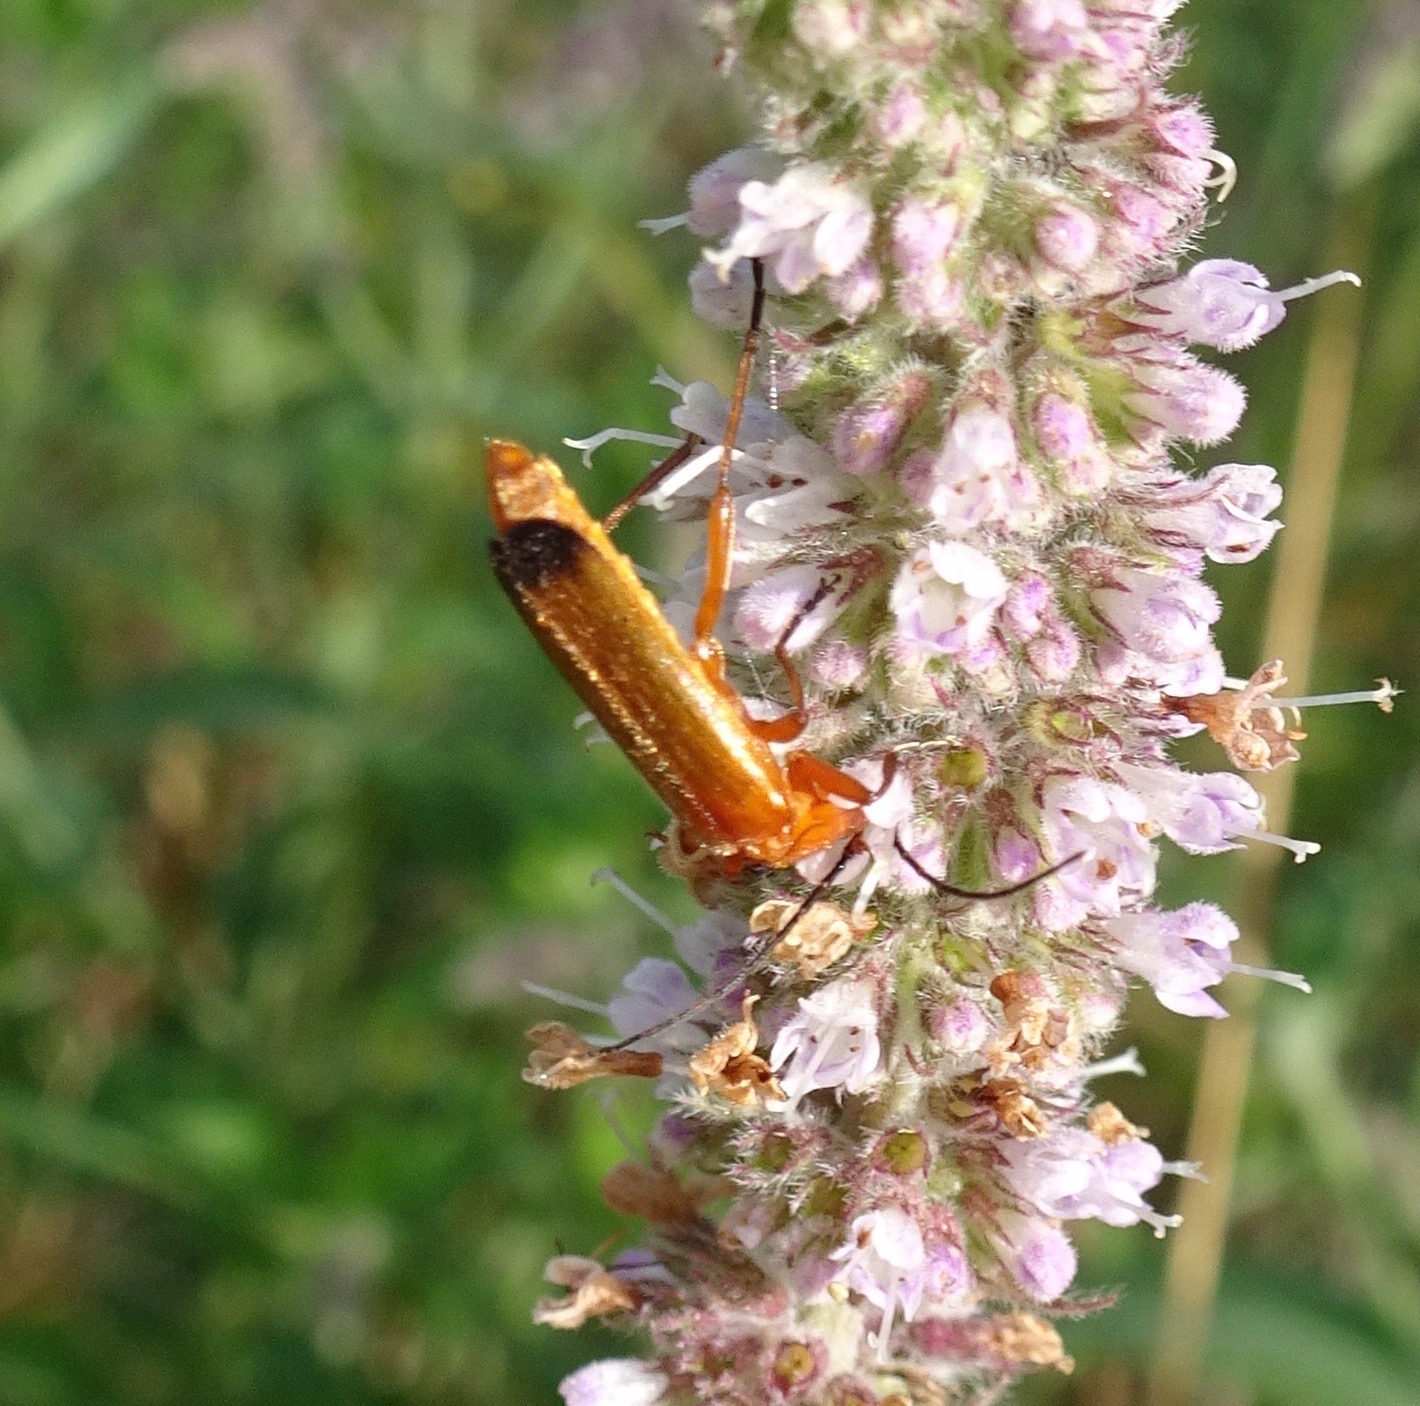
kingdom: Animalia
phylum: Arthropoda
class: Insecta
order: Coleoptera
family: Cantharidae
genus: Rhagonycha
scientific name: Rhagonycha fulva
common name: Common red soldier beetle
